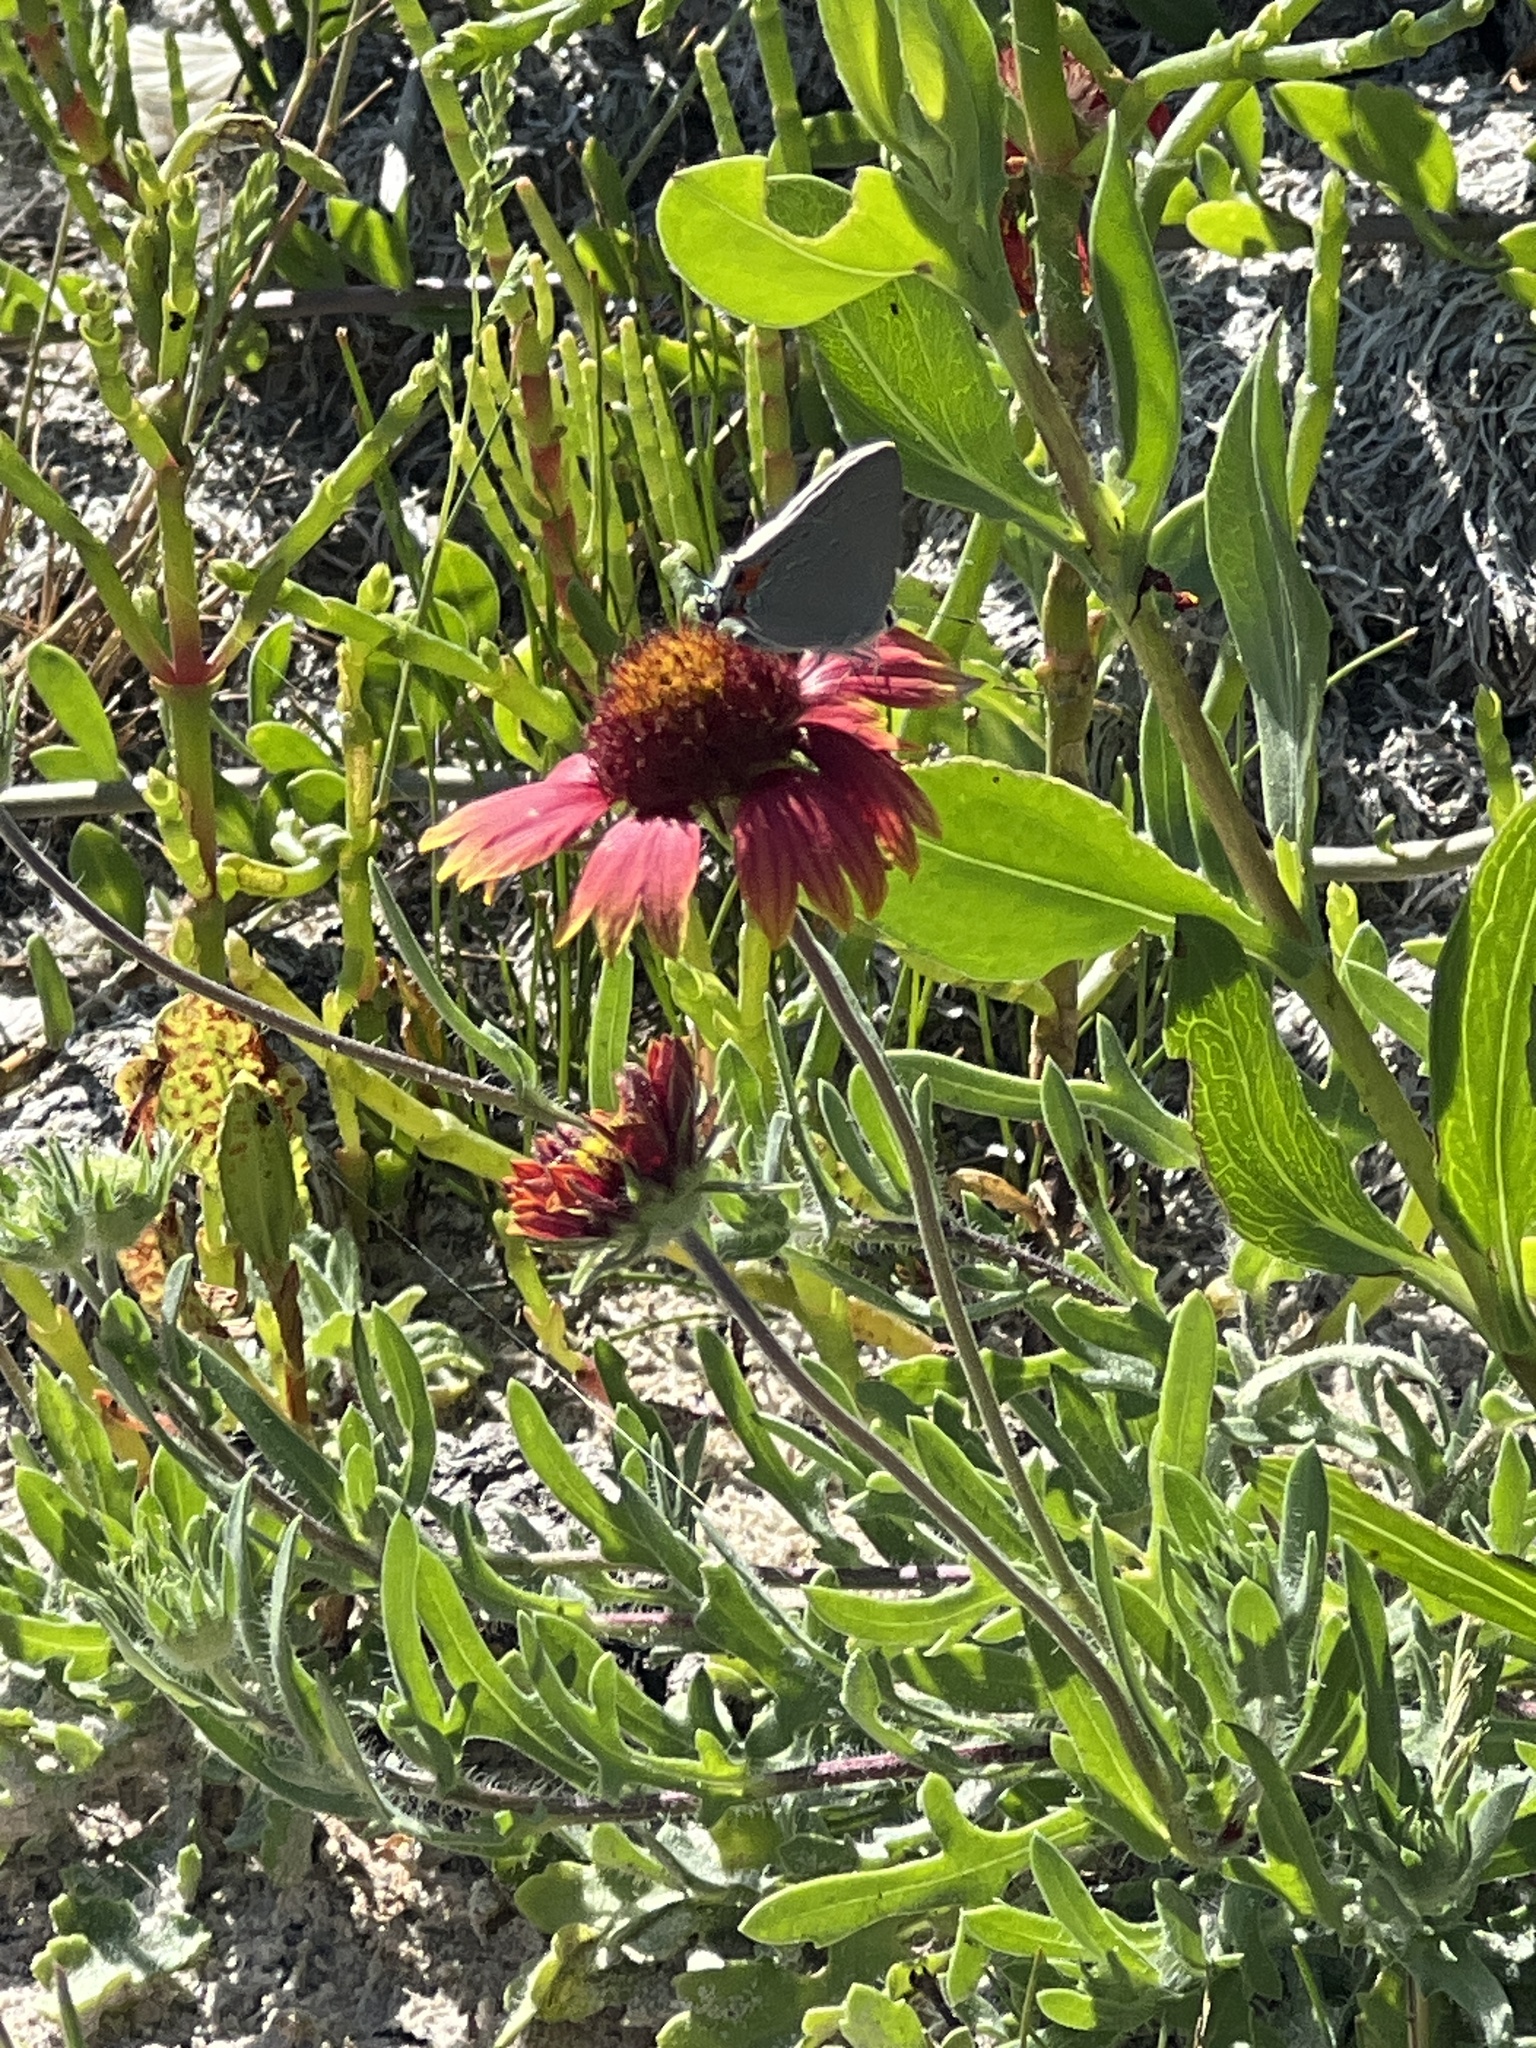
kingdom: Plantae
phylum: Tracheophyta
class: Magnoliopsida
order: Asterales
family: Asteraceae
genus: Gaillardia
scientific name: Gaillardia pulchella
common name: Firewheel
